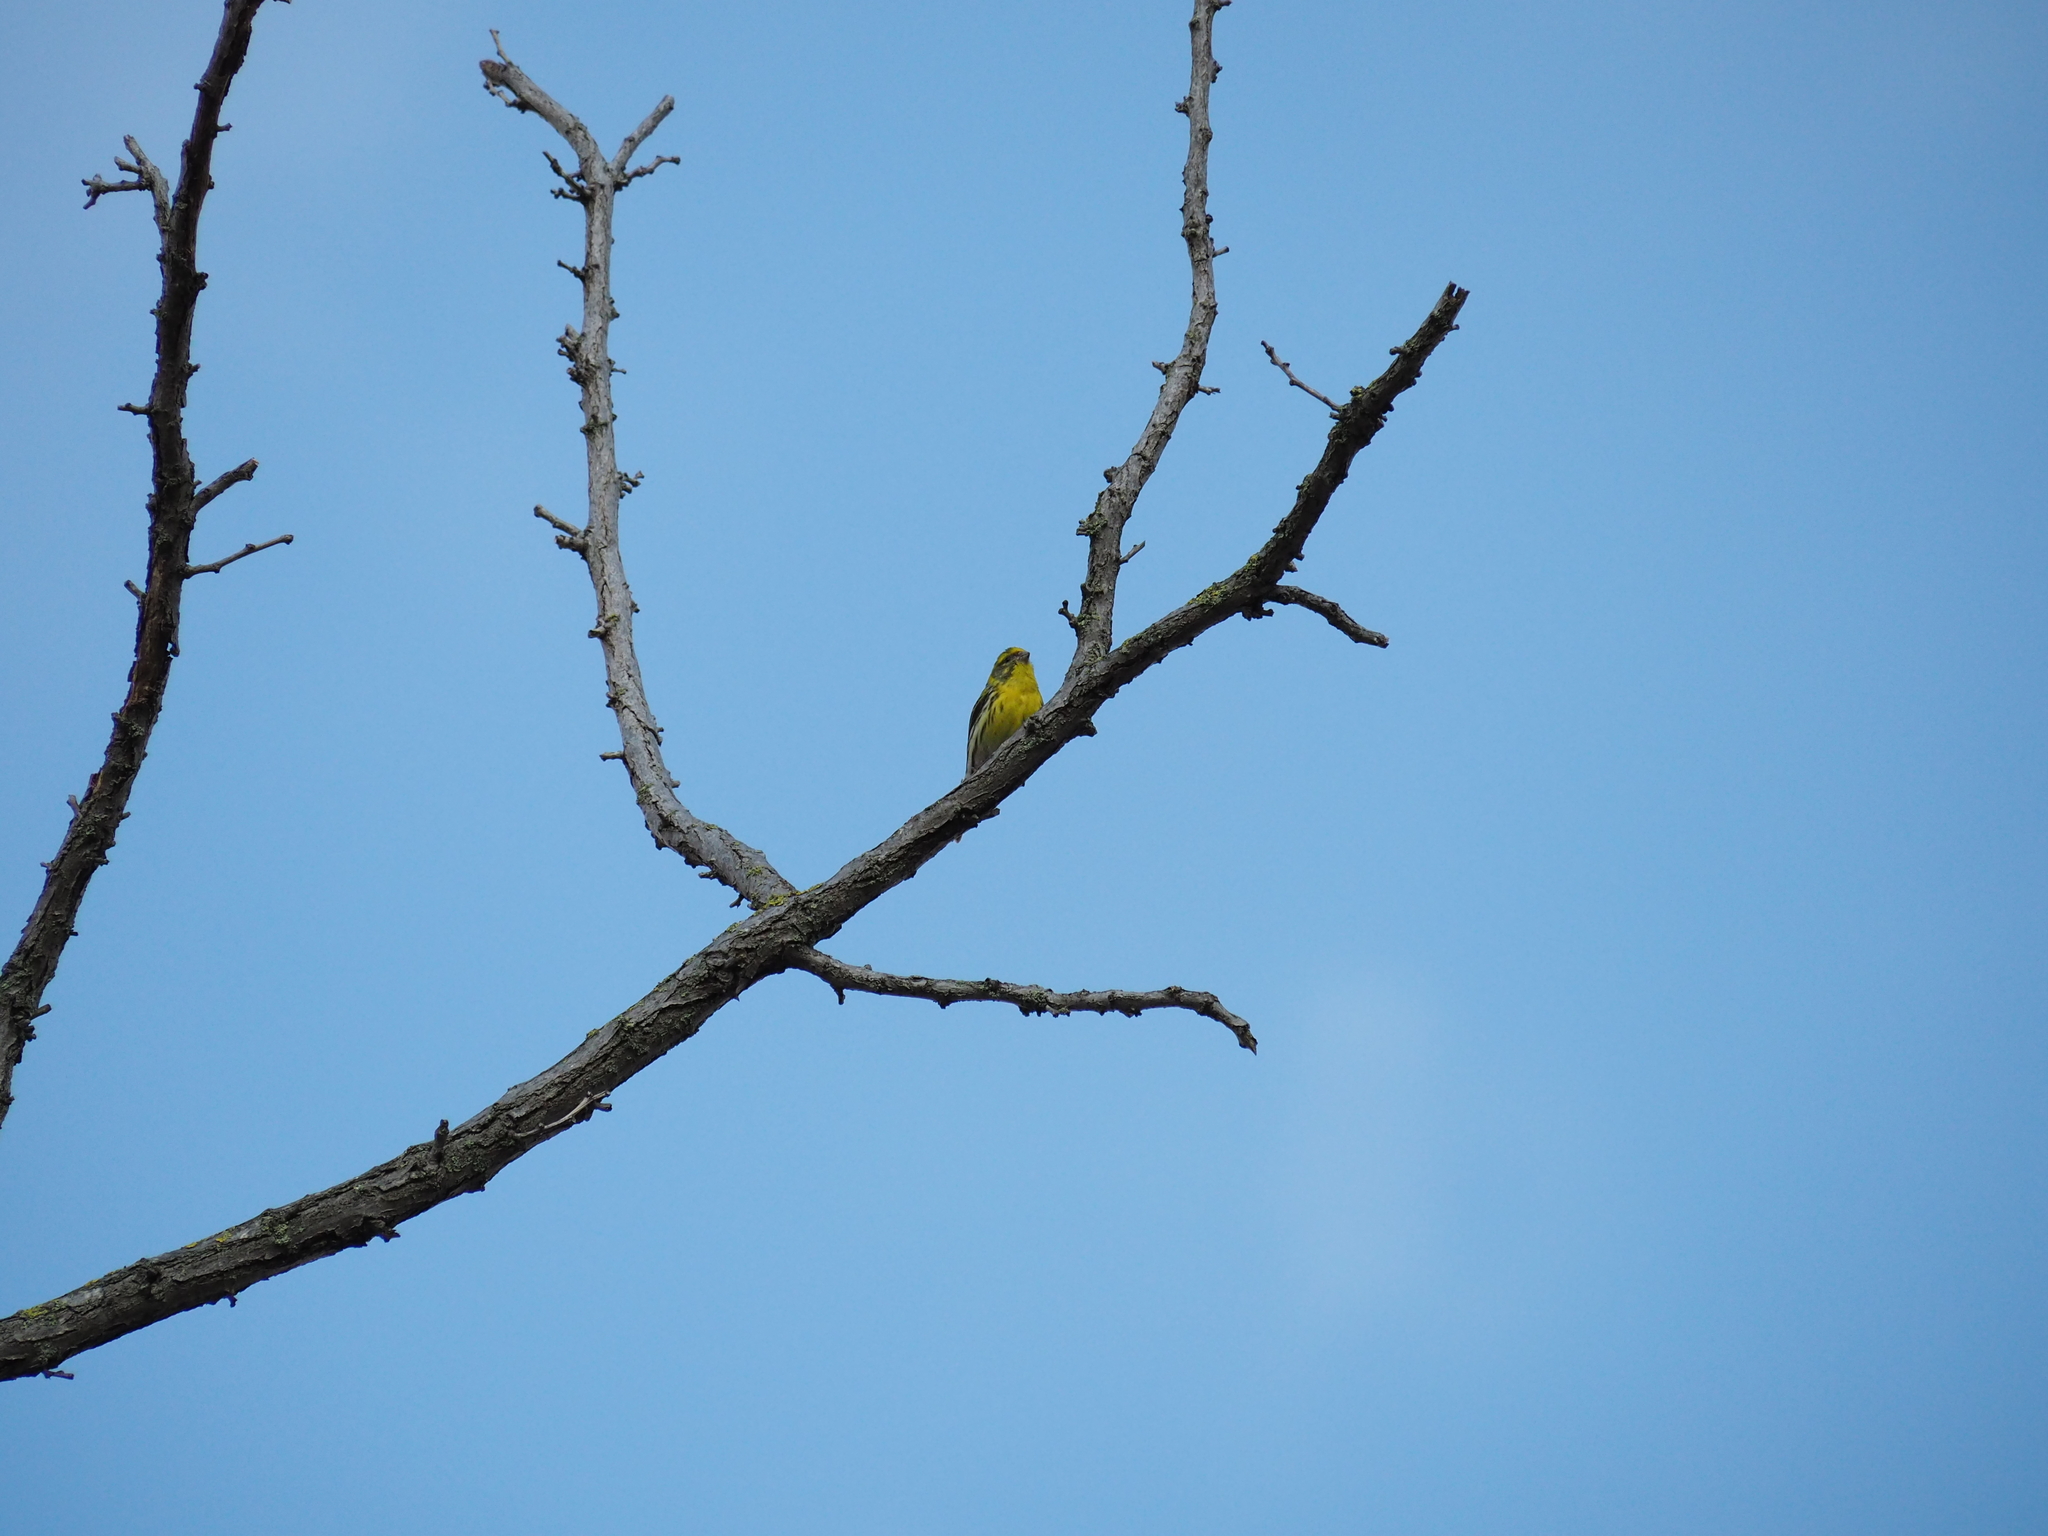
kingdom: Animalia
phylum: Chordata
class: Aves
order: Passeriformes
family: Fringillidae
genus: Serinus
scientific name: Serinus serinus
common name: European serin
